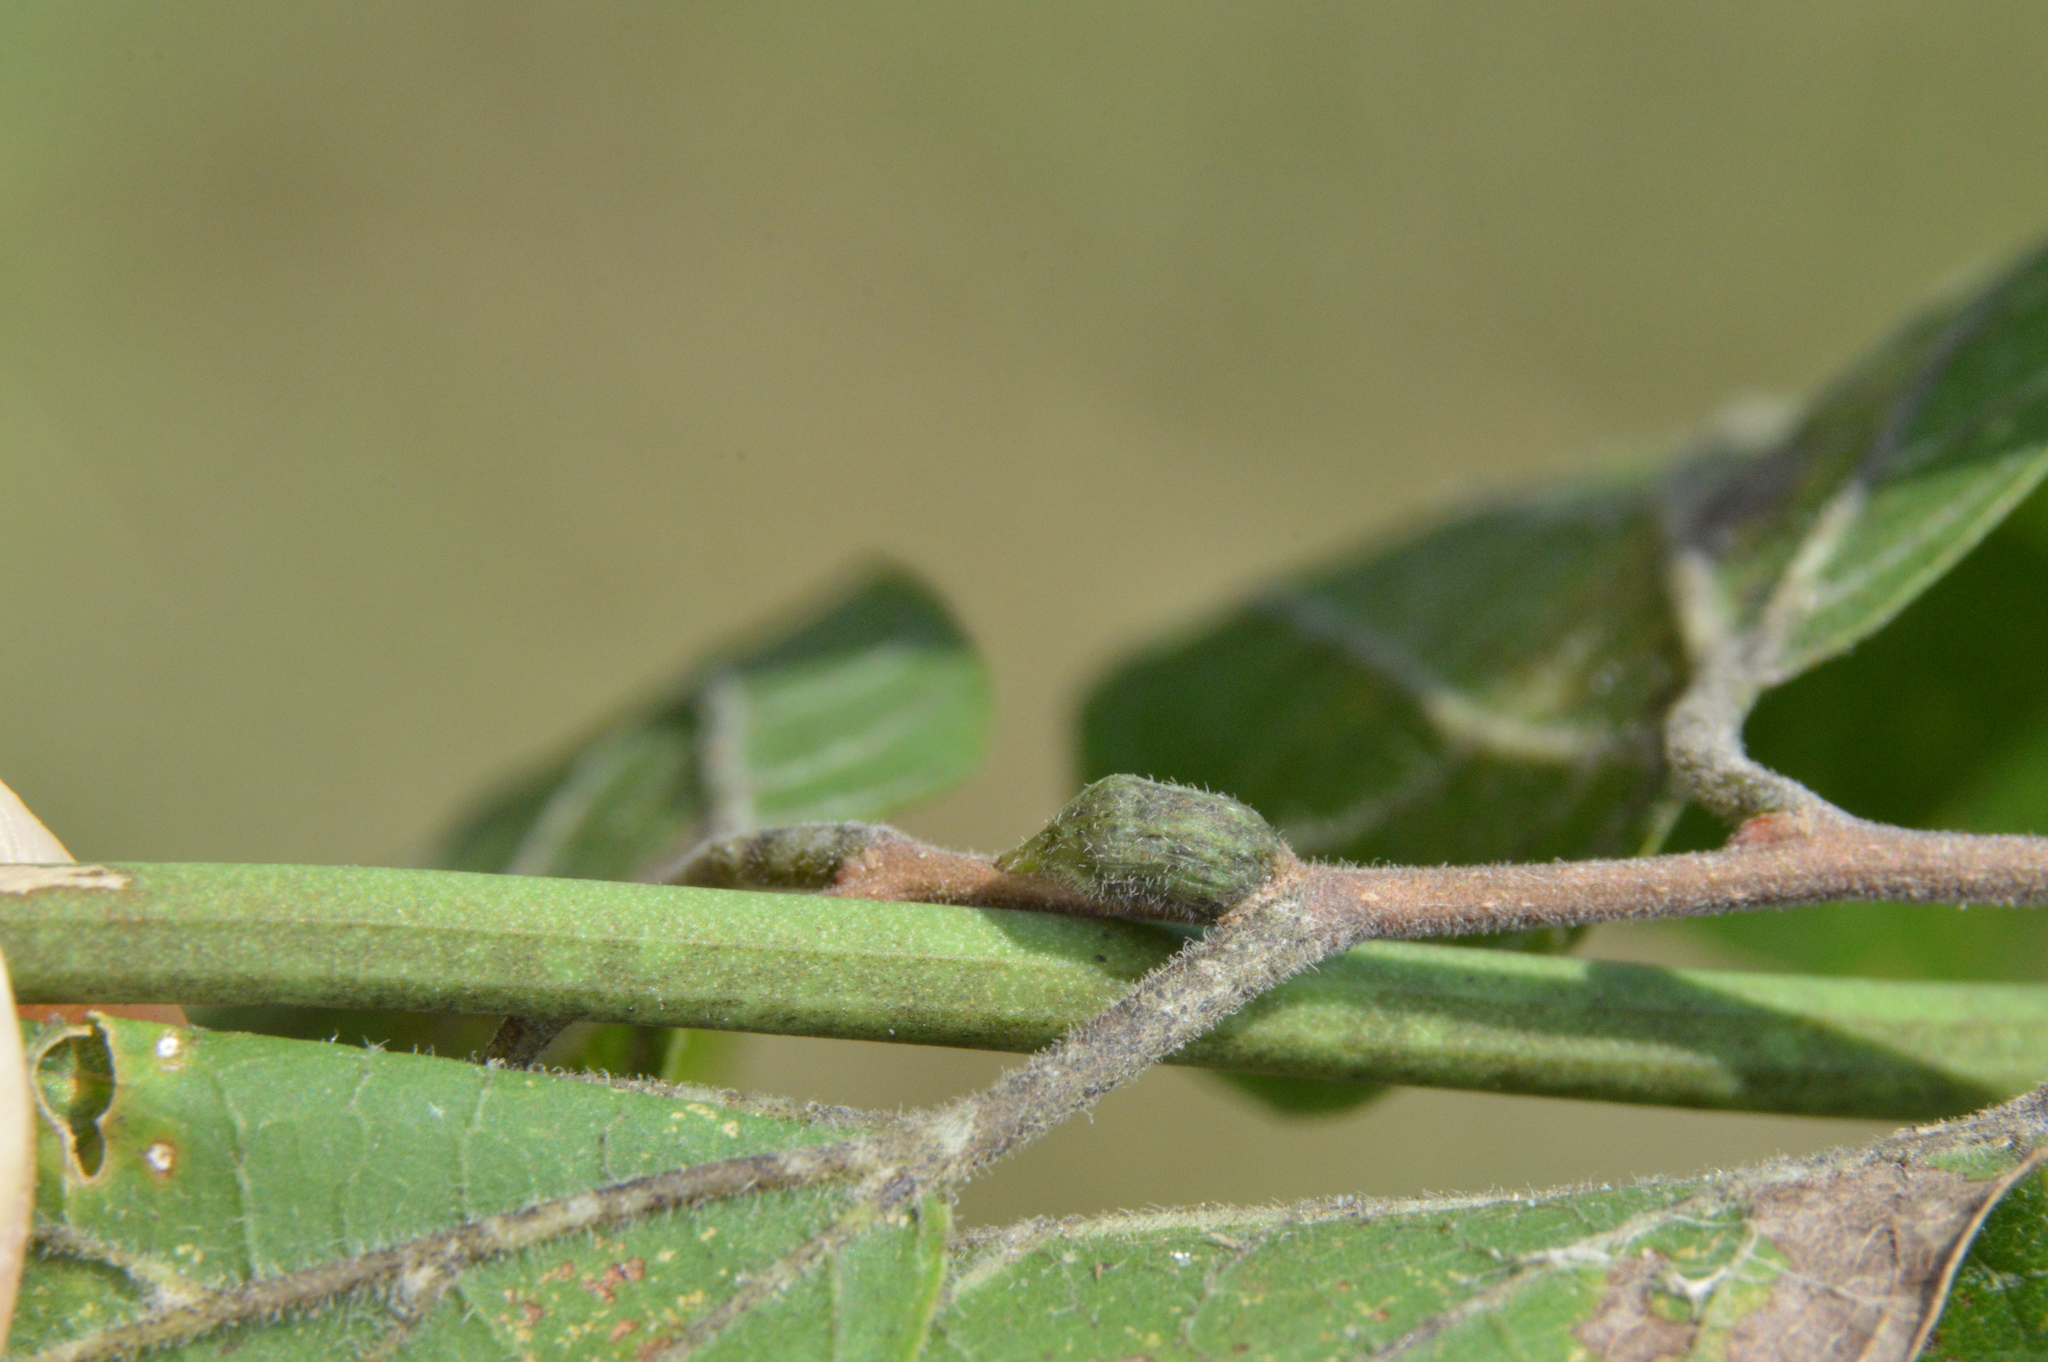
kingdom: Animalia
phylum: Arthropoda
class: Insecta
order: Diptera
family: Cecidomyiidae
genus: Celticecis
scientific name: Celticecis ramicola
